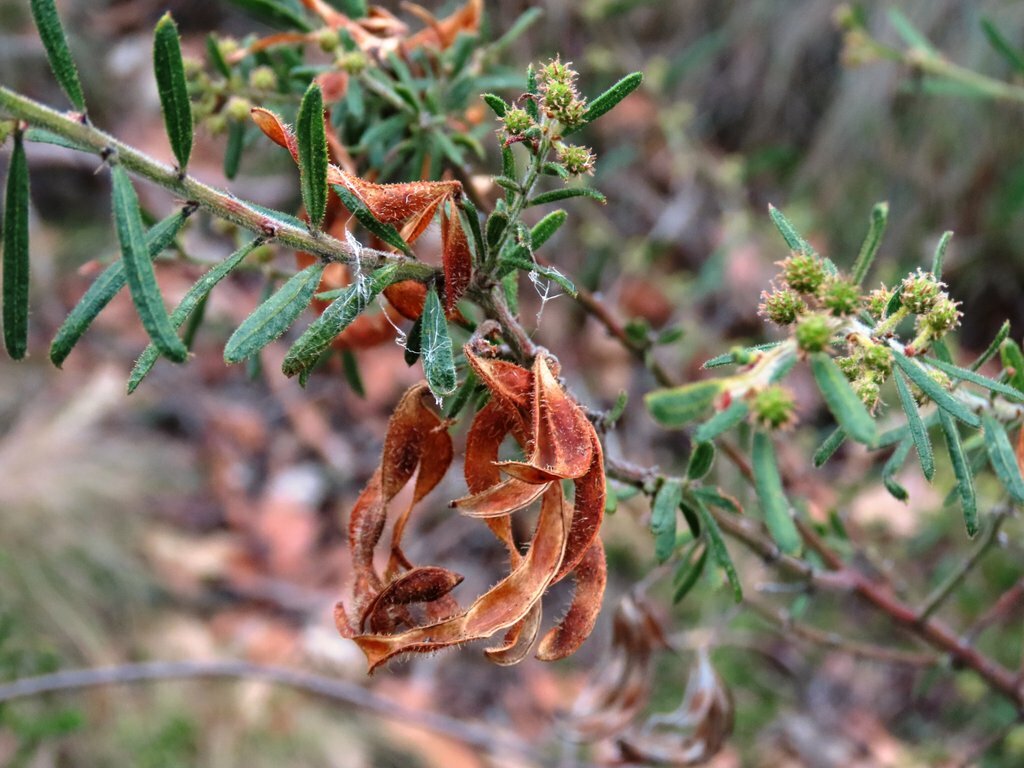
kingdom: Plantae
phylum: Tracheophyta
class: Magnoliopsida
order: Fabales
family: Fabaceae
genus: Acacia
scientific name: Acacia aspera
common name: Rough wattle
